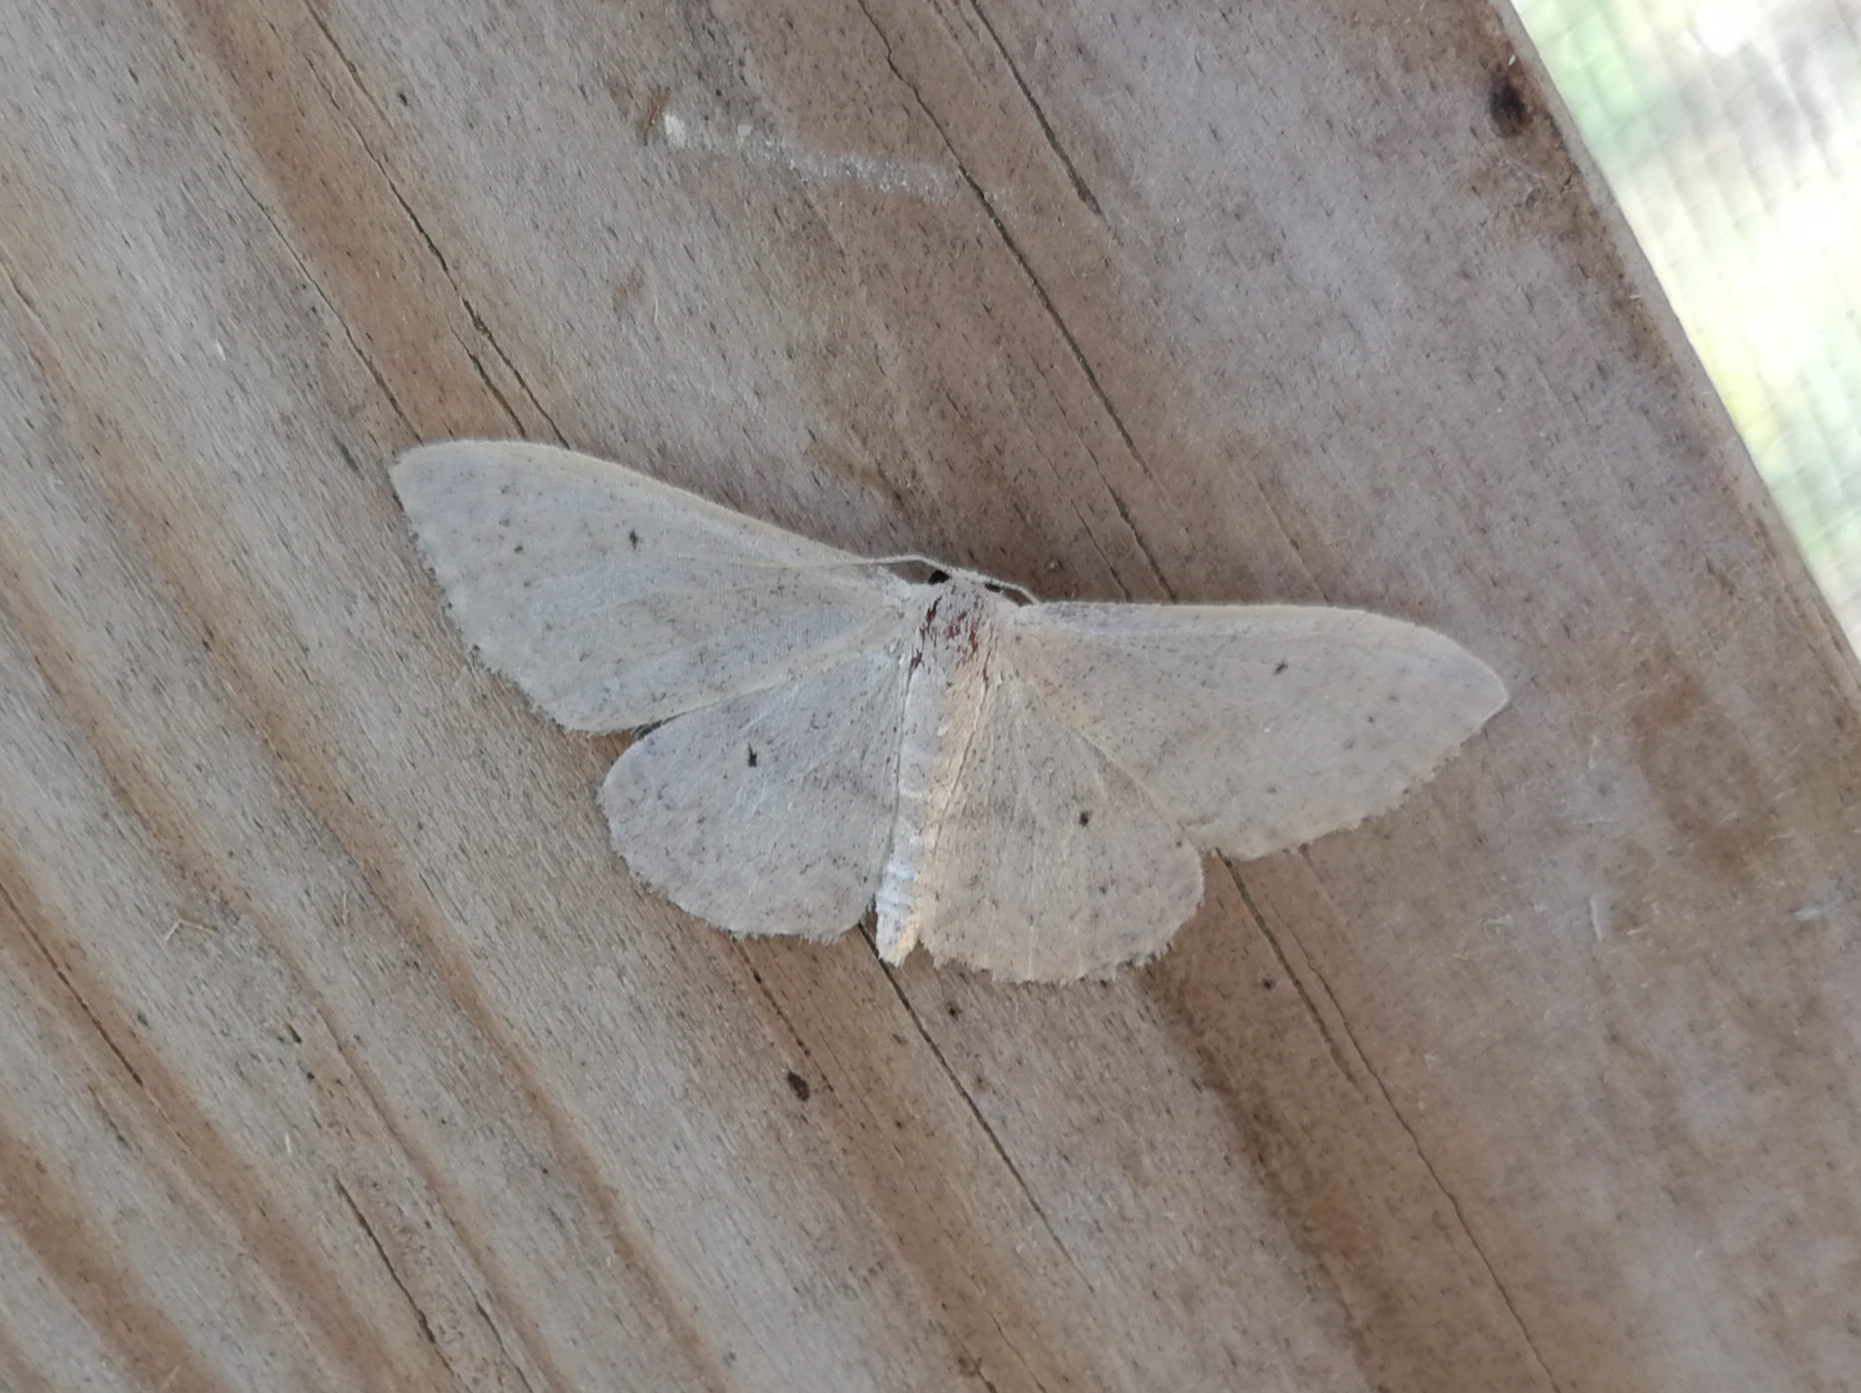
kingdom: Animalia
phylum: Arthropoda
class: Insecta
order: Lepidoptera
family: Geometridae
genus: Idaea
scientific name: Idaea eugeniata
